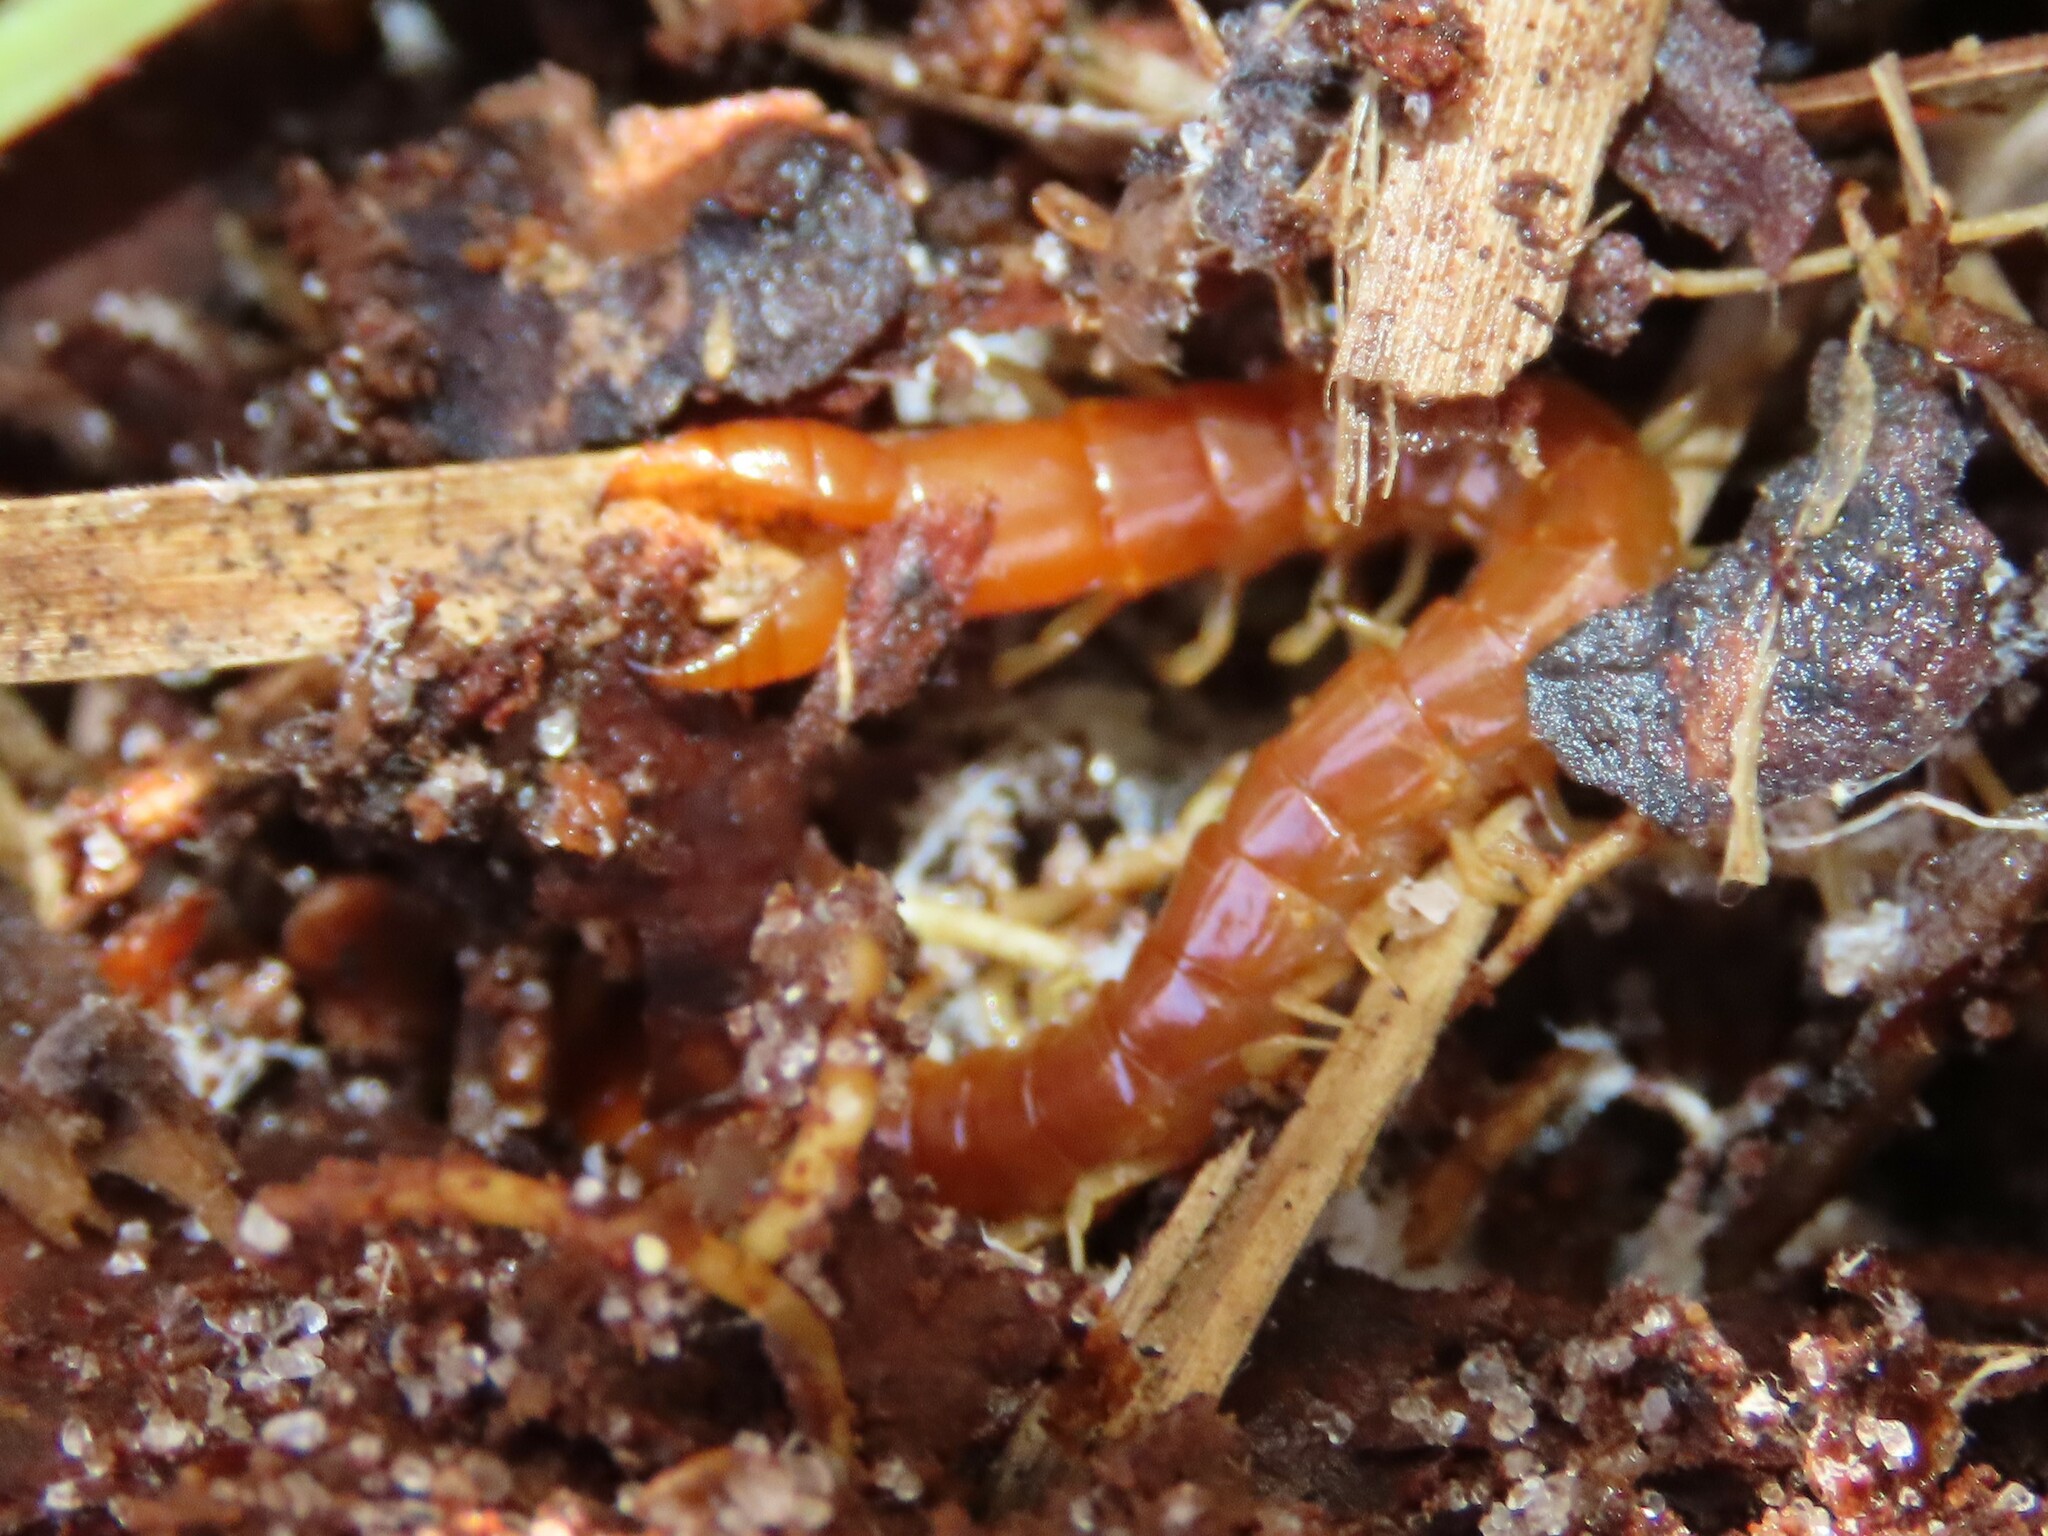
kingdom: Animalia
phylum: Arthropoda
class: Chilopoda
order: Scolopendromorpha
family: Cryptopidae
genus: Theatops
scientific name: Theatops posticus
